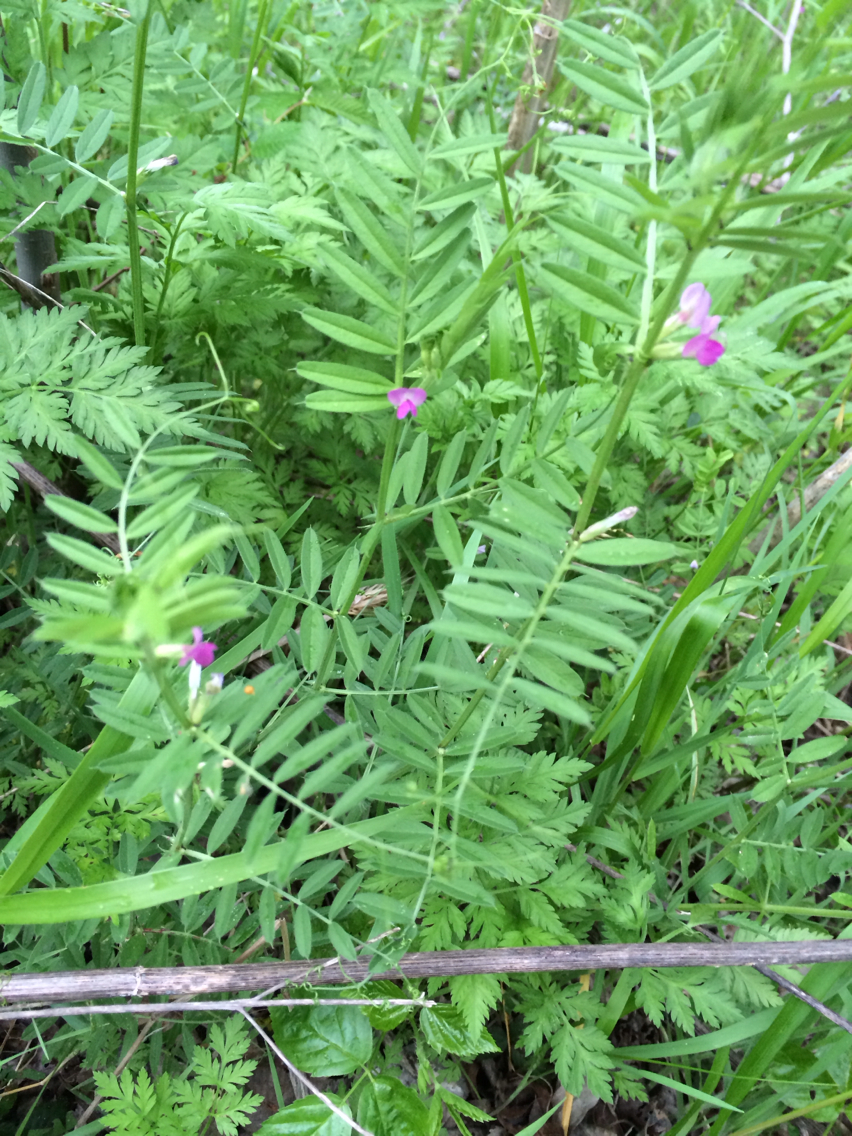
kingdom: Plantae
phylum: Tracheophyta
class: Magnoliopsida
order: Fabales
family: Fabaceae
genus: Vicia
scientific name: Vicia sativa
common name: Garden vetch
